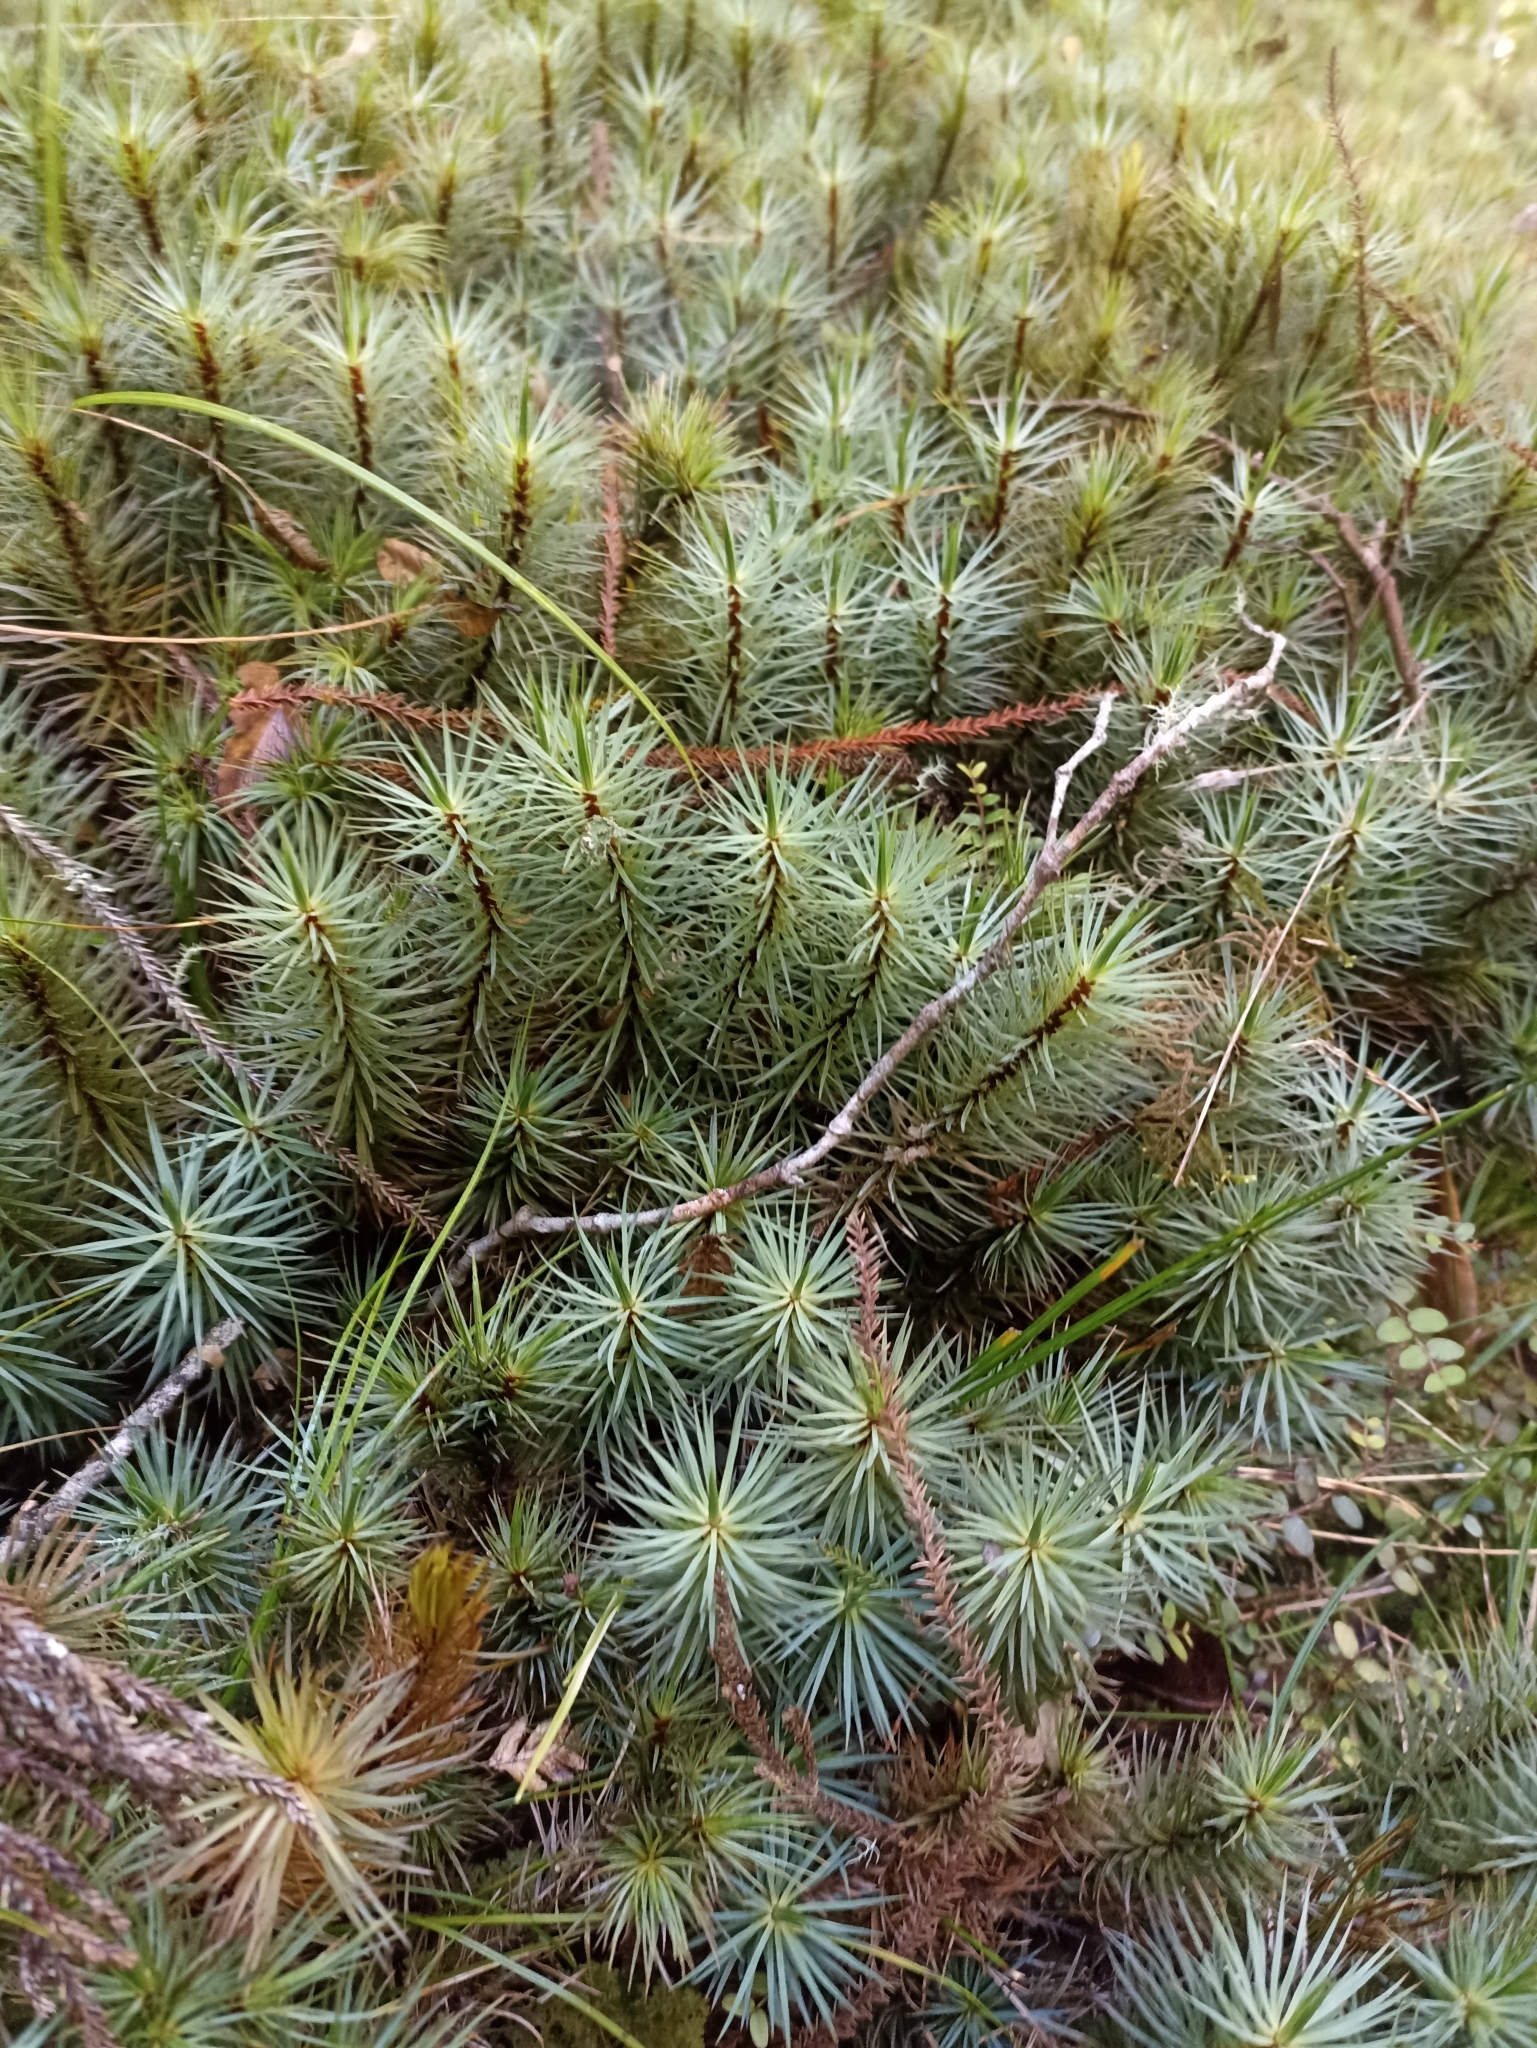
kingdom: Plantae
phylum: Bryophyta
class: Polytrichopsida
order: Polytrichales
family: Polytrichaceae
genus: Dawsonia
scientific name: Dawsonia superba
